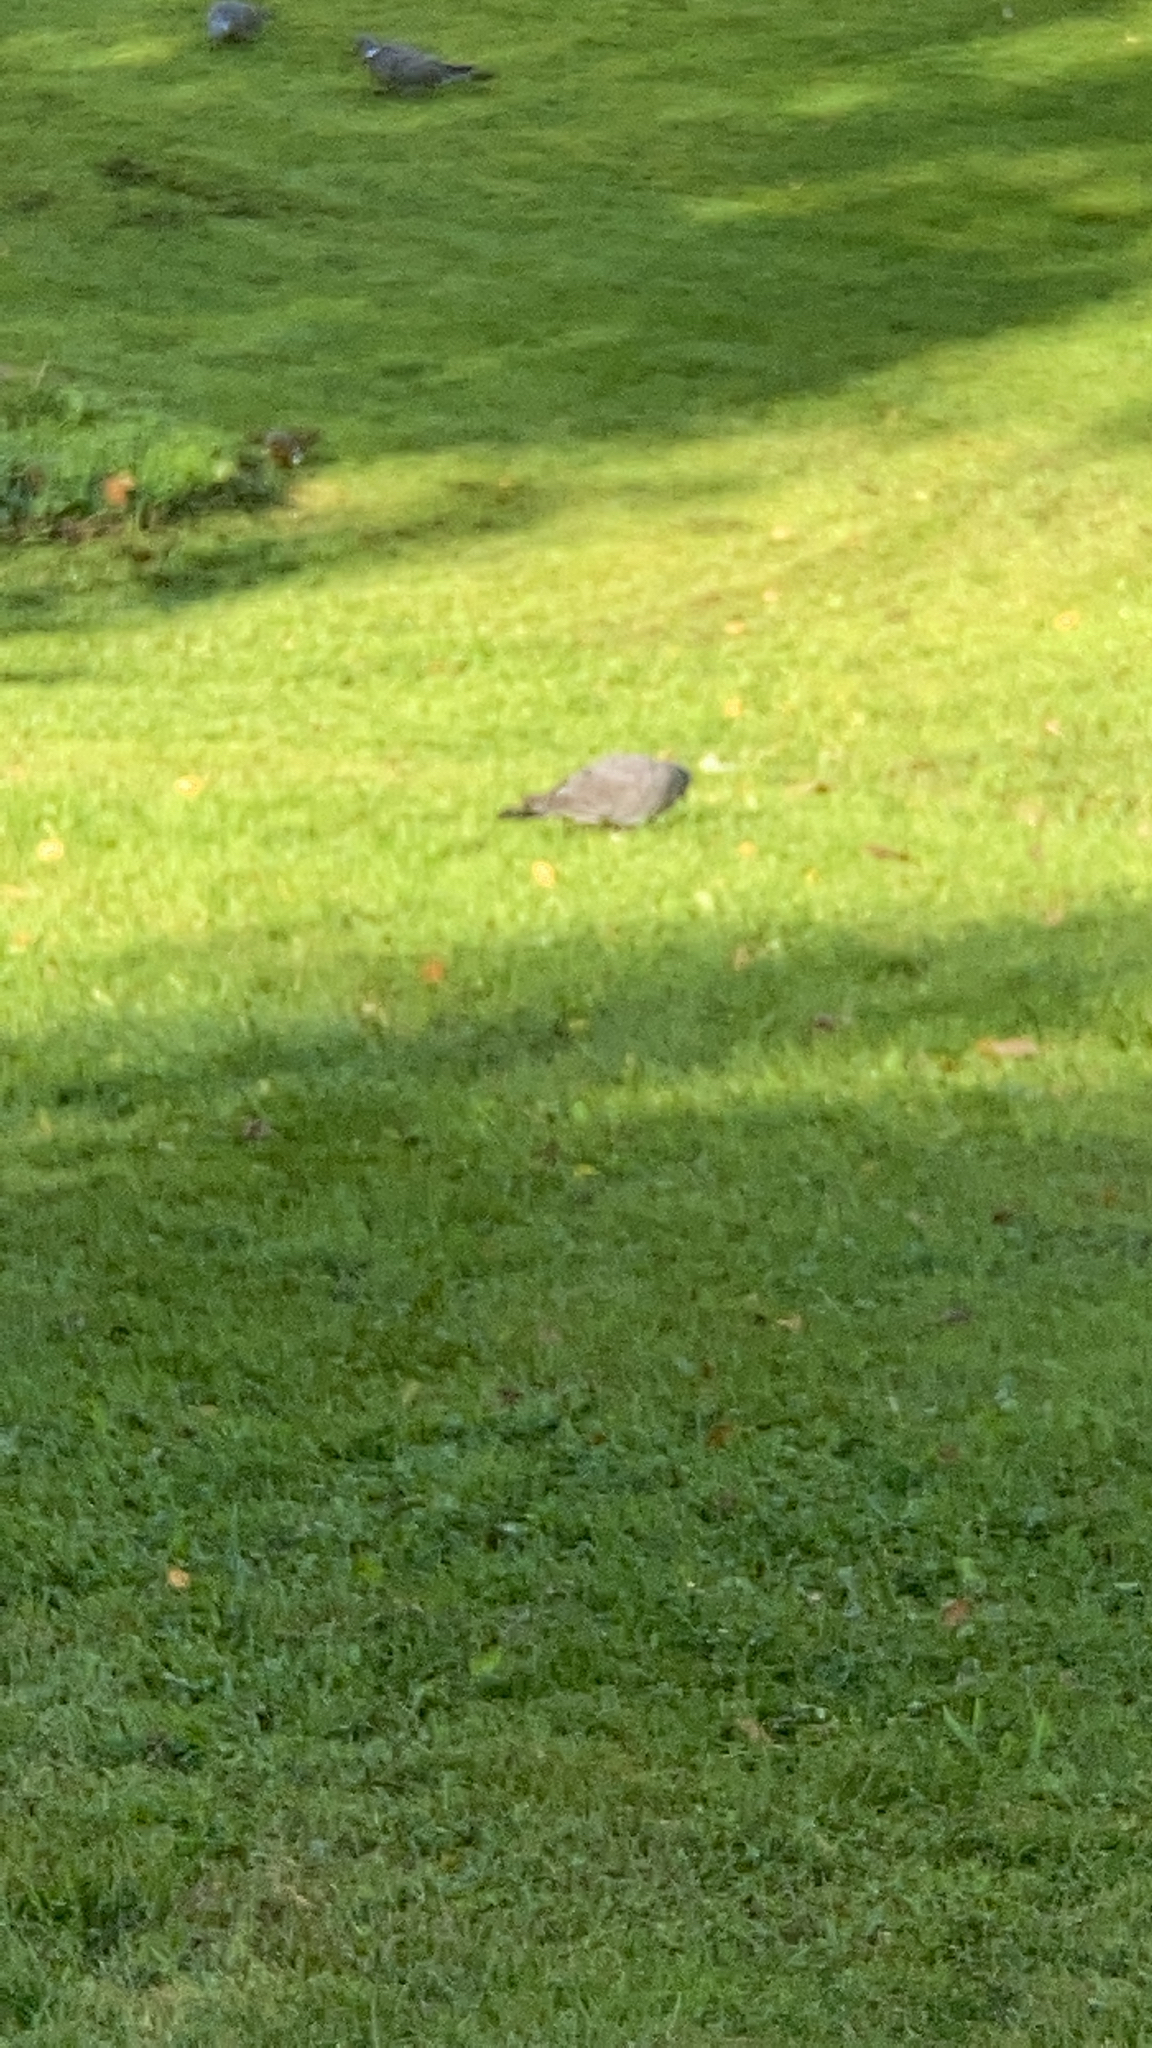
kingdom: Animalia
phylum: Chordata
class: Aves
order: Columbiformes
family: Columbidae
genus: Columba
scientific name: Columba palumbus
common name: Common wood pigeon
